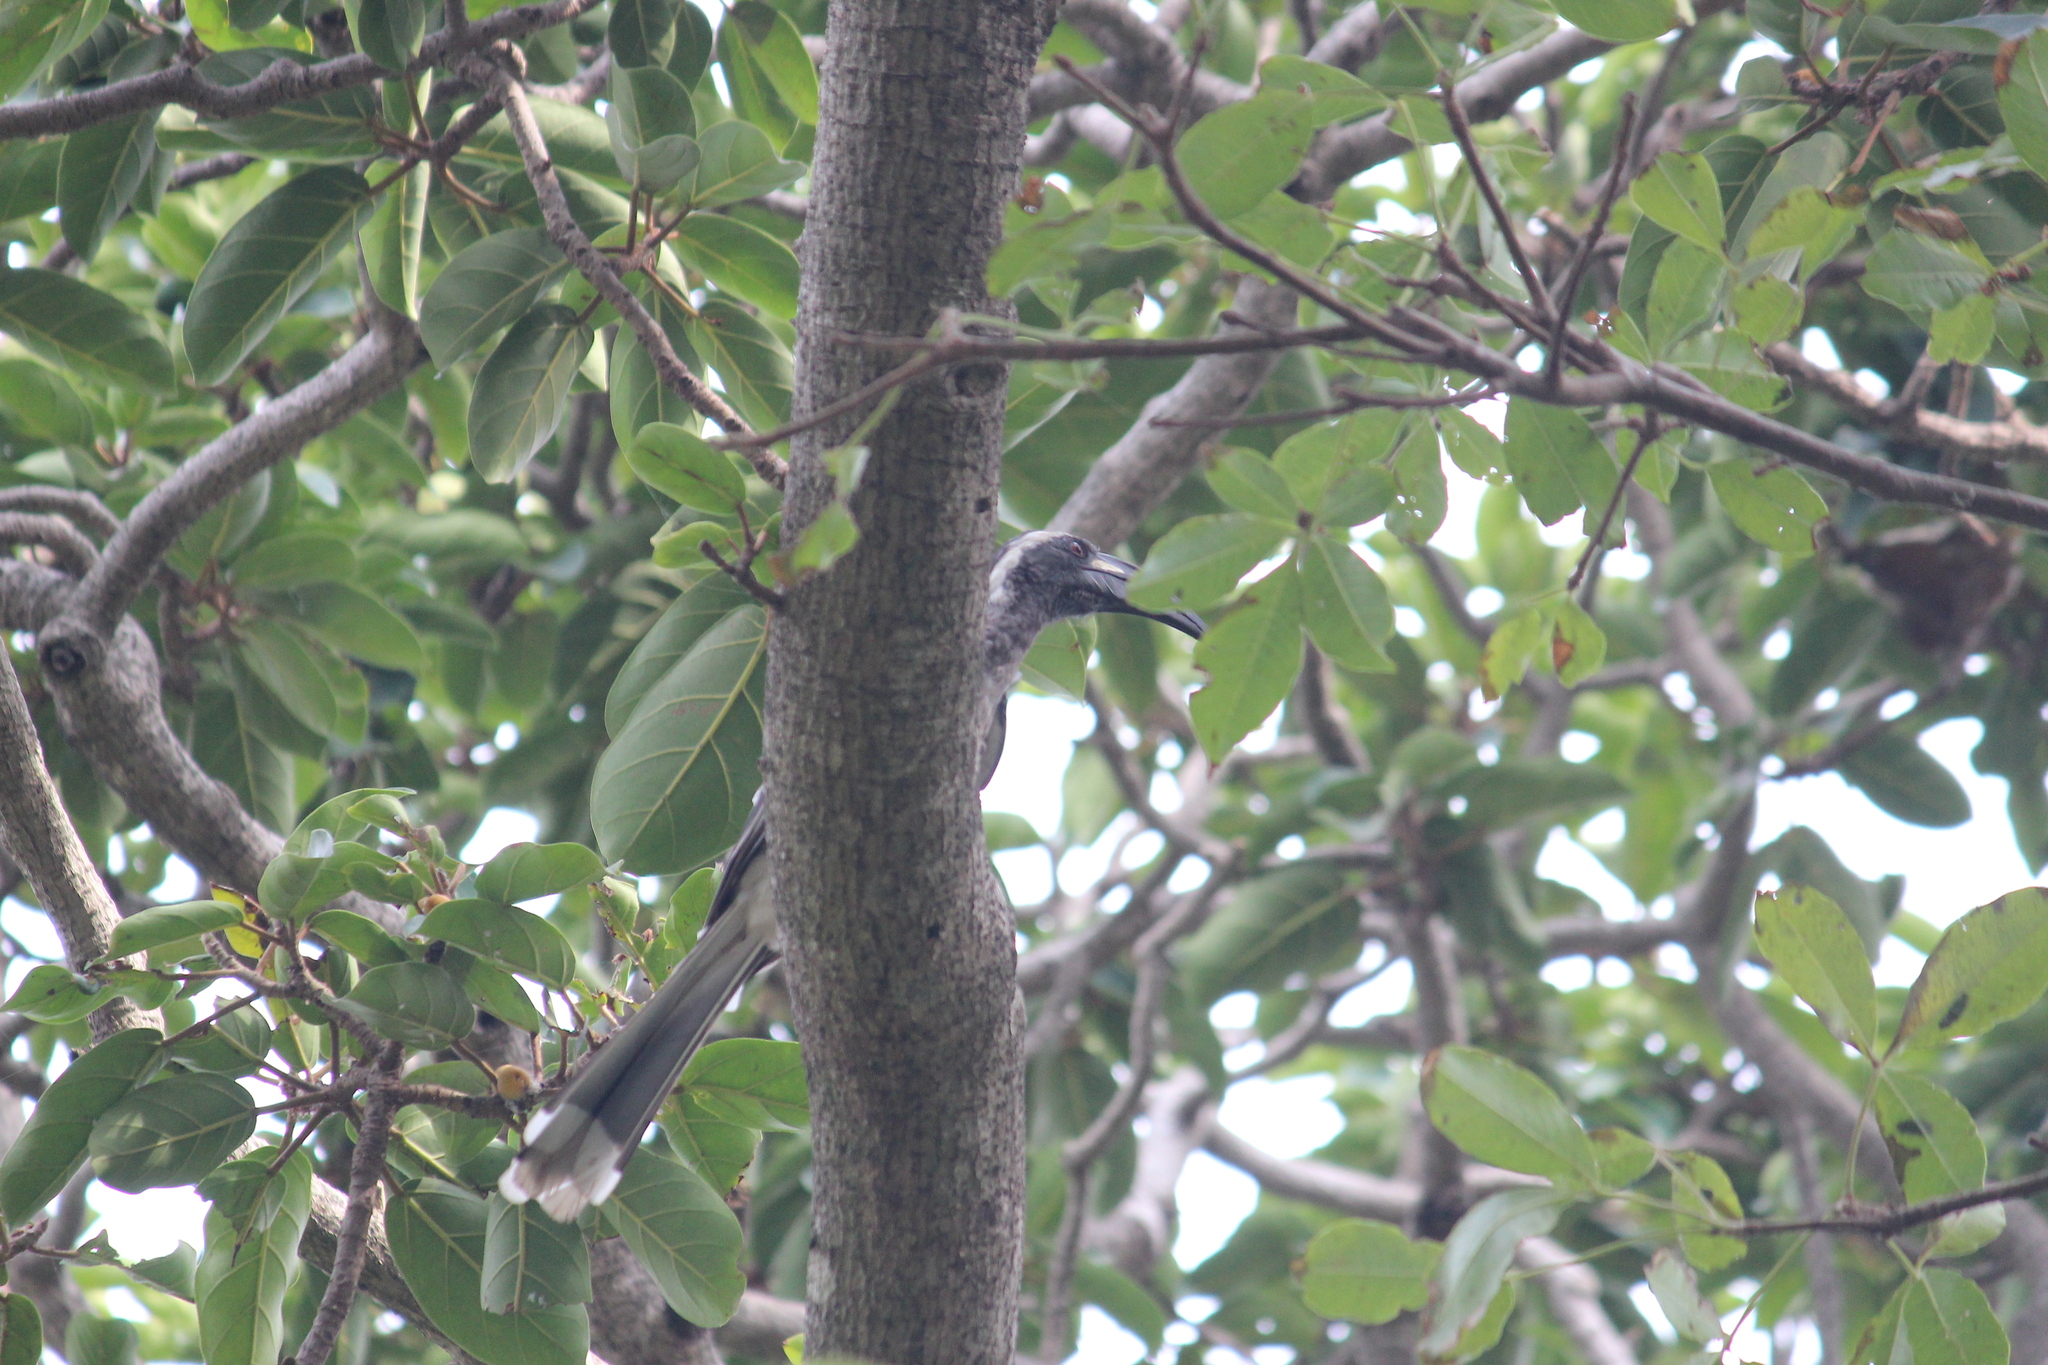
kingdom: Animalia
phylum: Chordata
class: Aves
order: Bucerotiformes
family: Bucerotidae
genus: Lophoceros
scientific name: Lophoceros nasutus
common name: African grey hornbill
